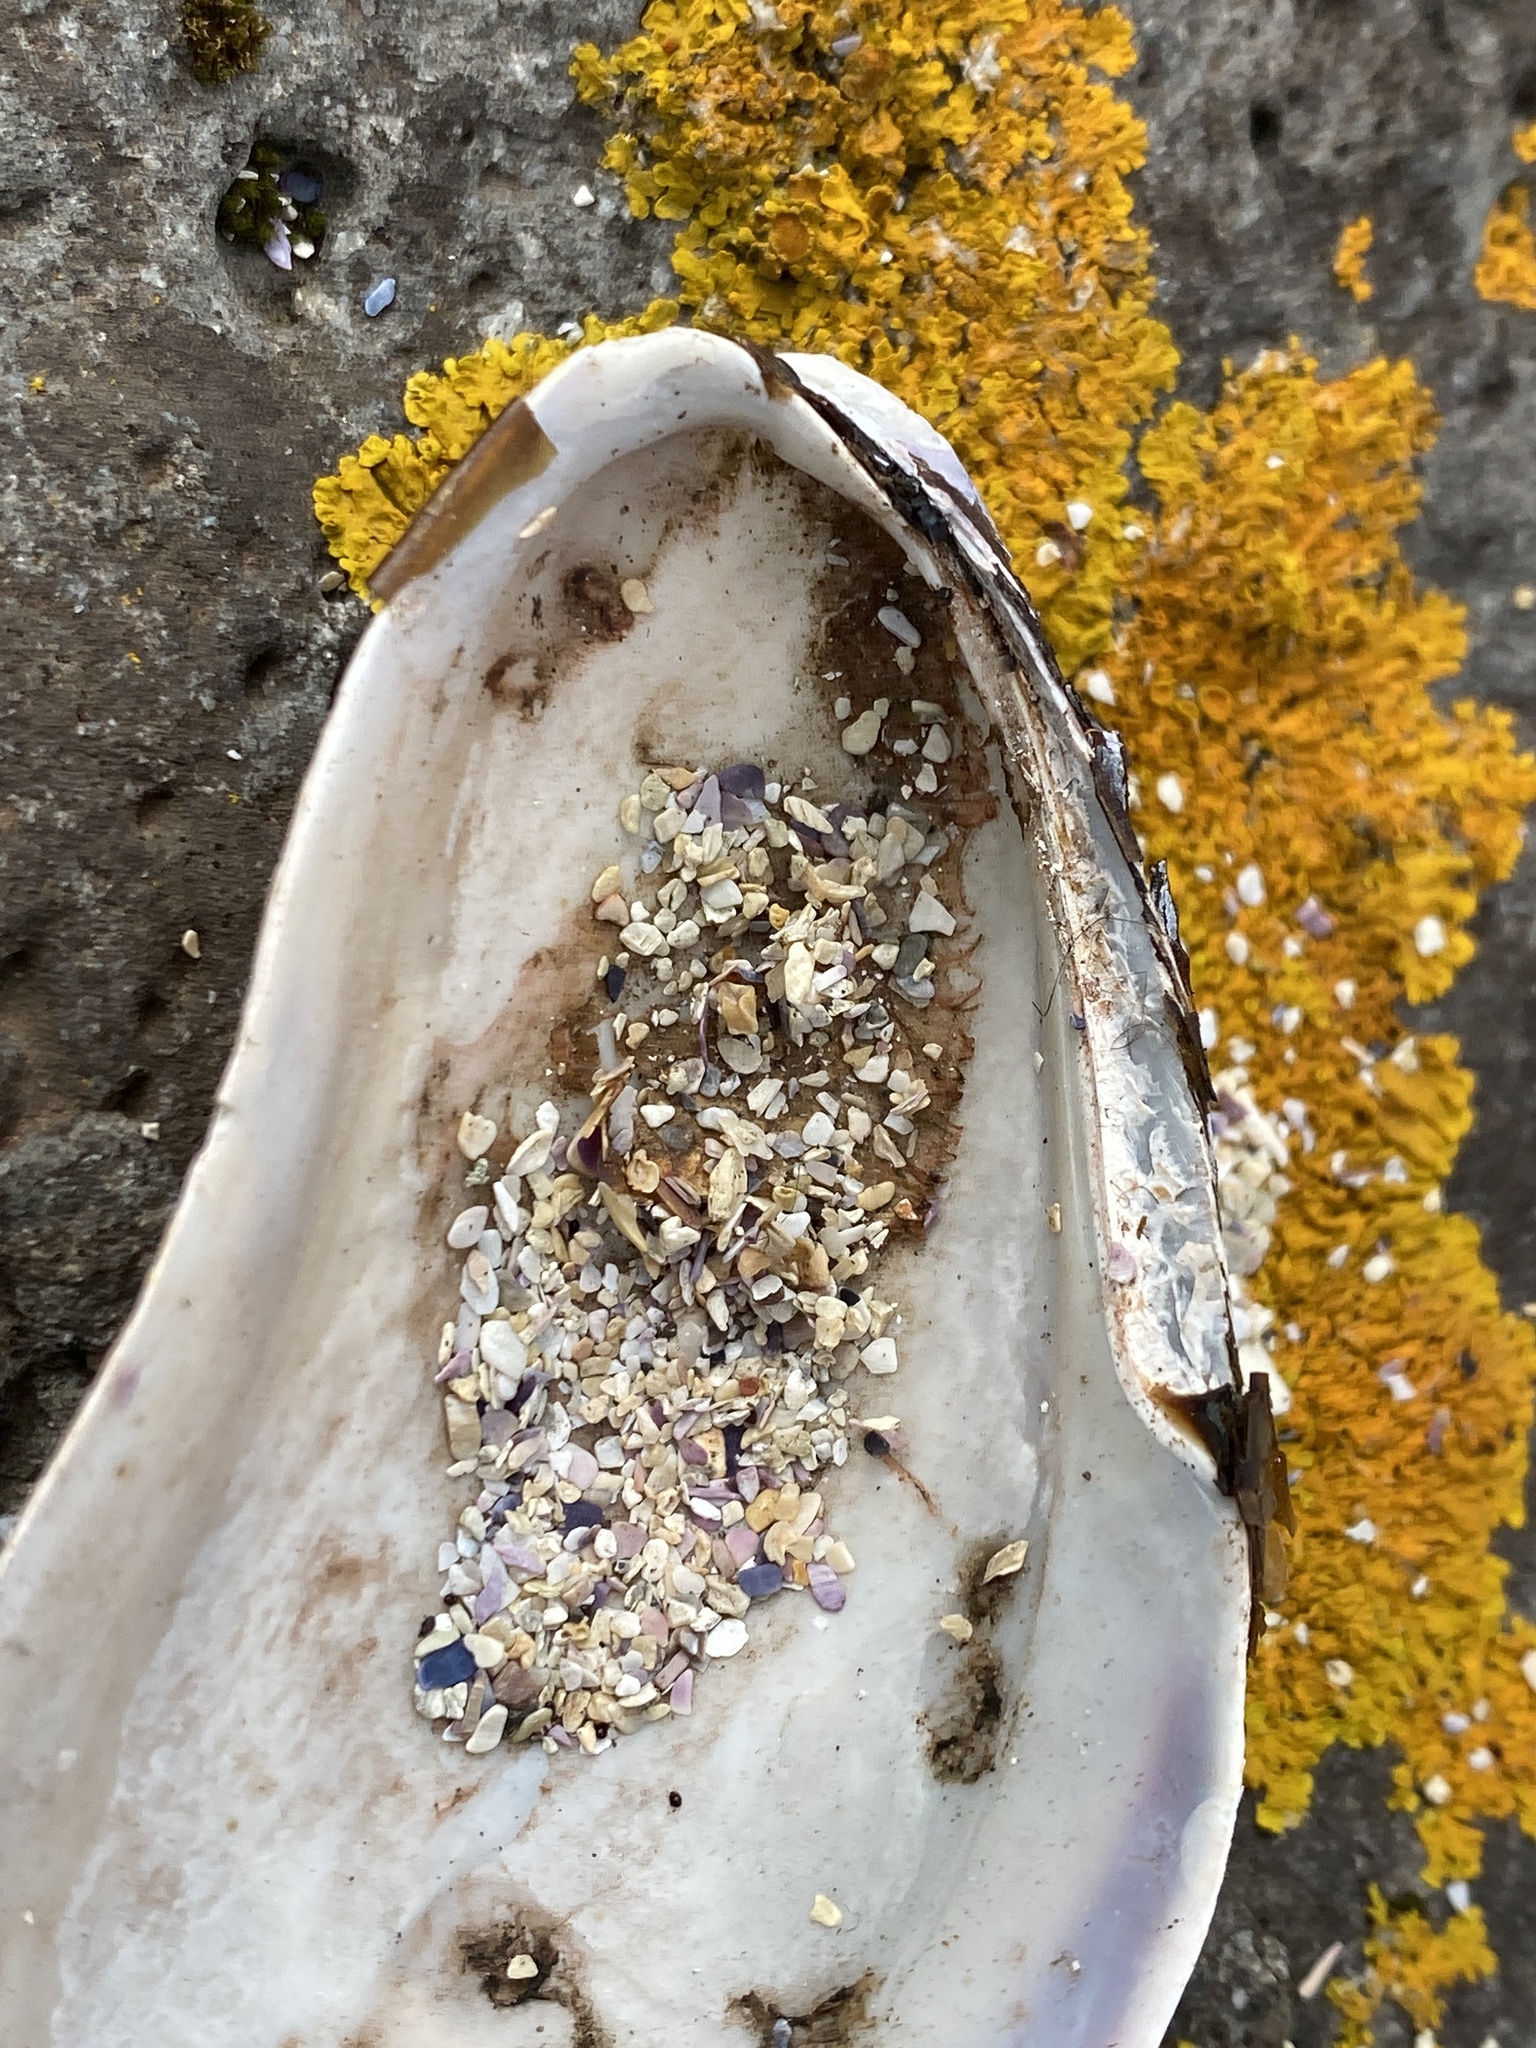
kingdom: Animalia
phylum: Mollusca
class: Bivalvia
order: Mytilida
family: Mytilidae
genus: Modiolus
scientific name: Modiolus modiolus
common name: Horse-mussel
